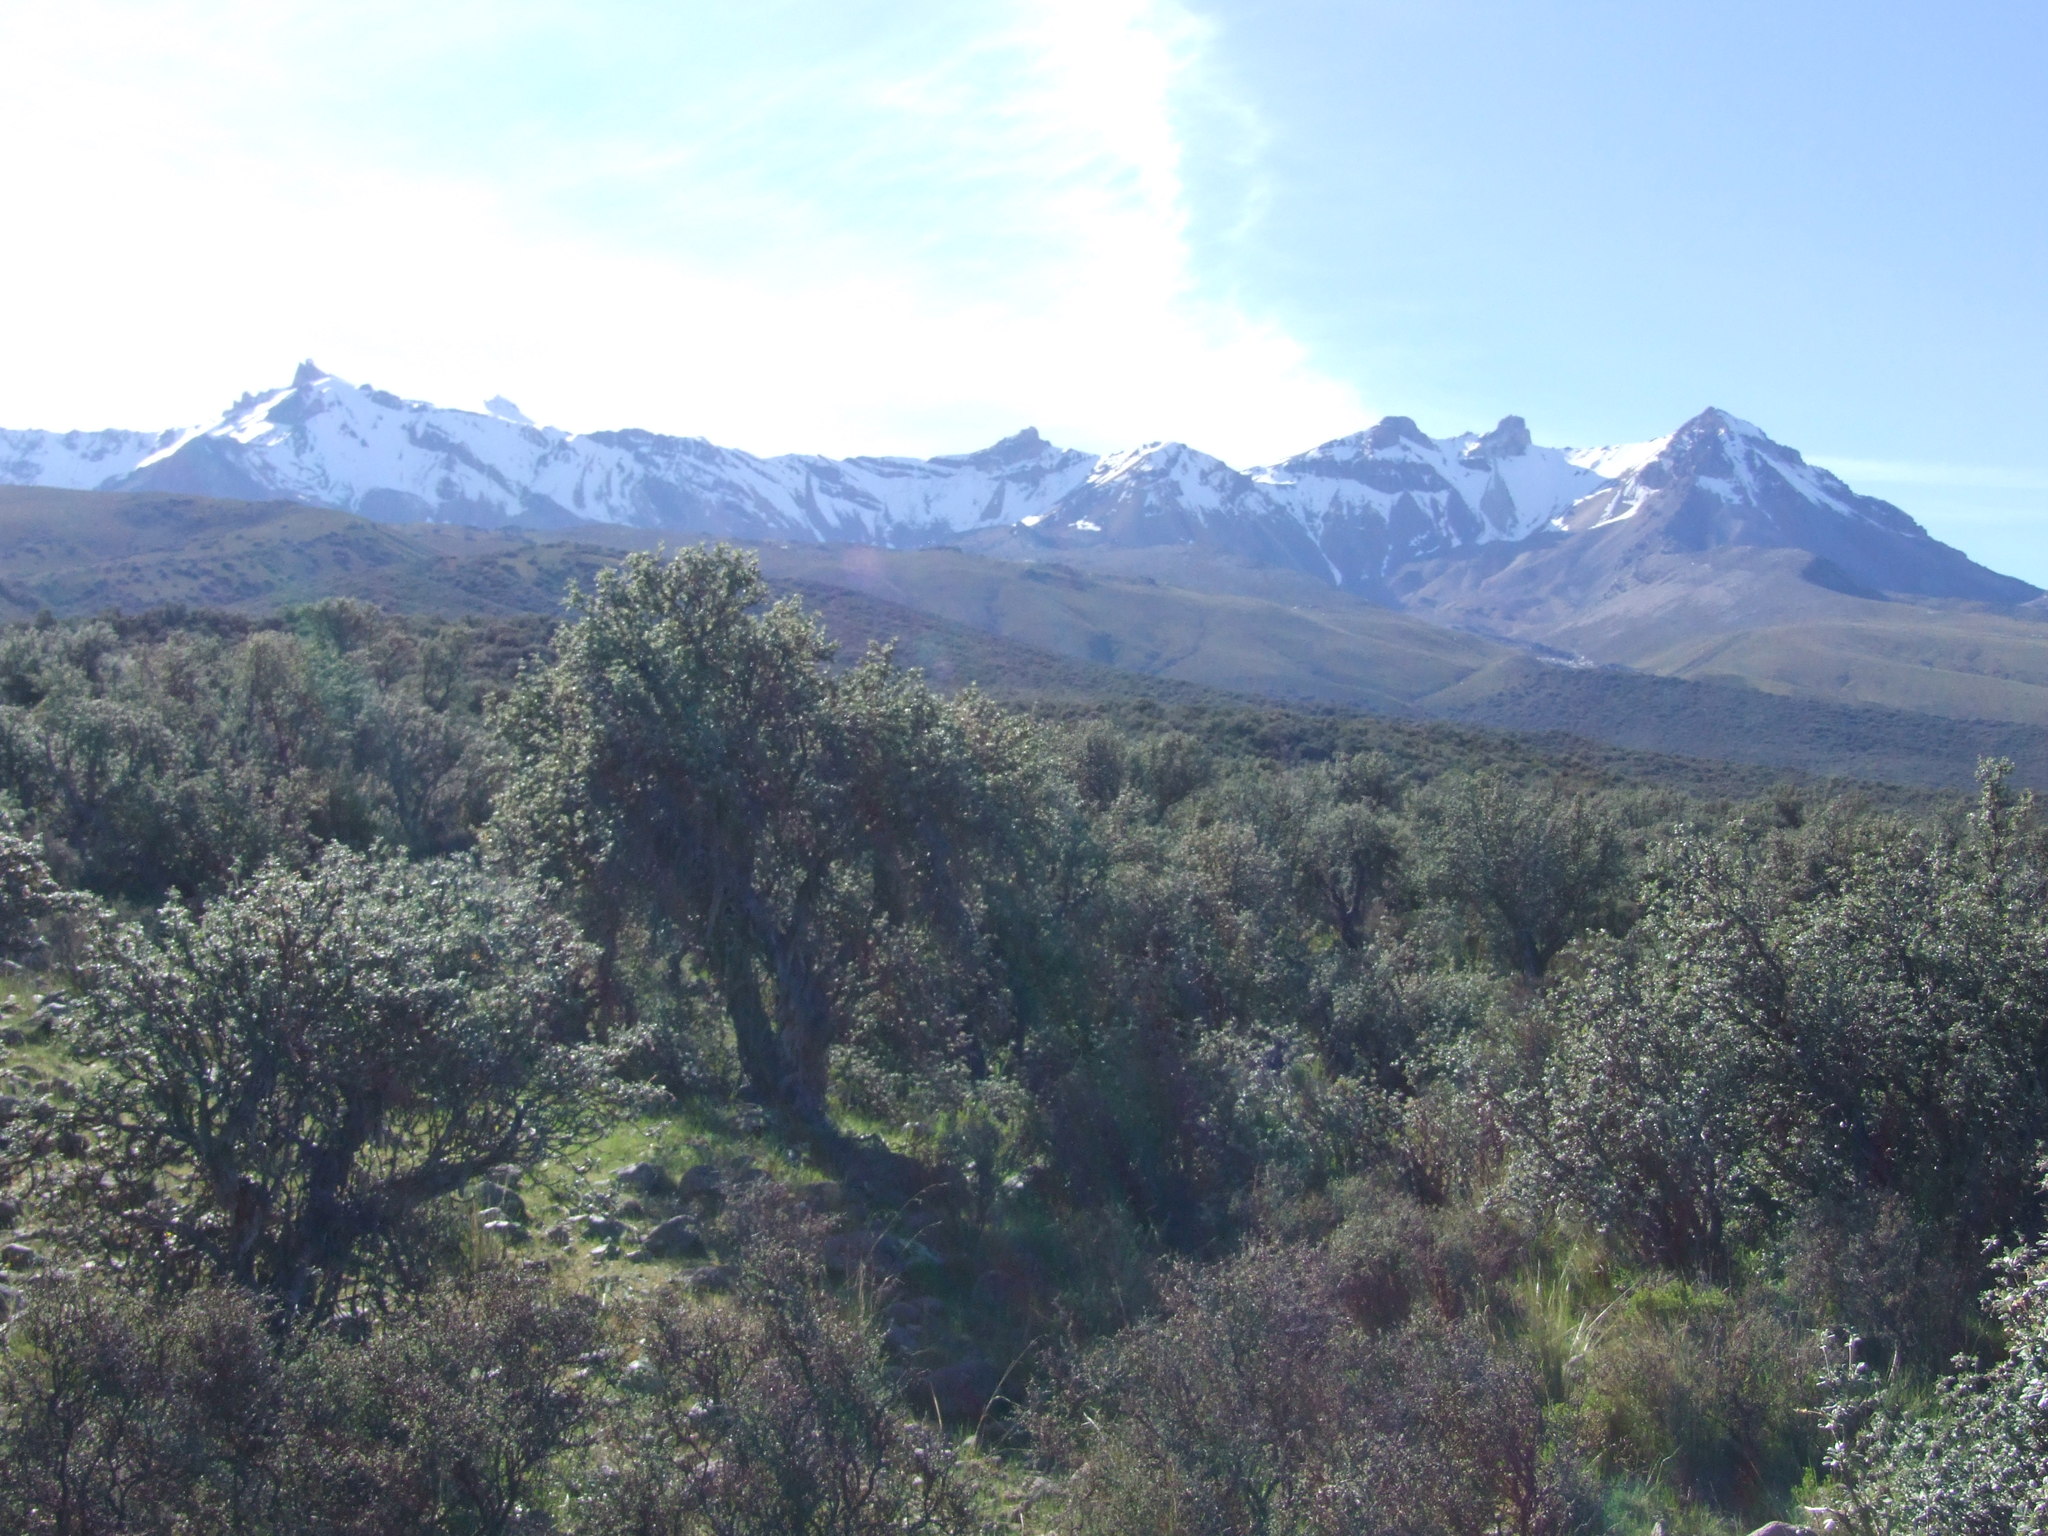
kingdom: Plantae
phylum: Tracheophyta
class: Magnoliopsida
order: Rosales
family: Rosaceae
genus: Polylepis
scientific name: Polylepis rugulosa
